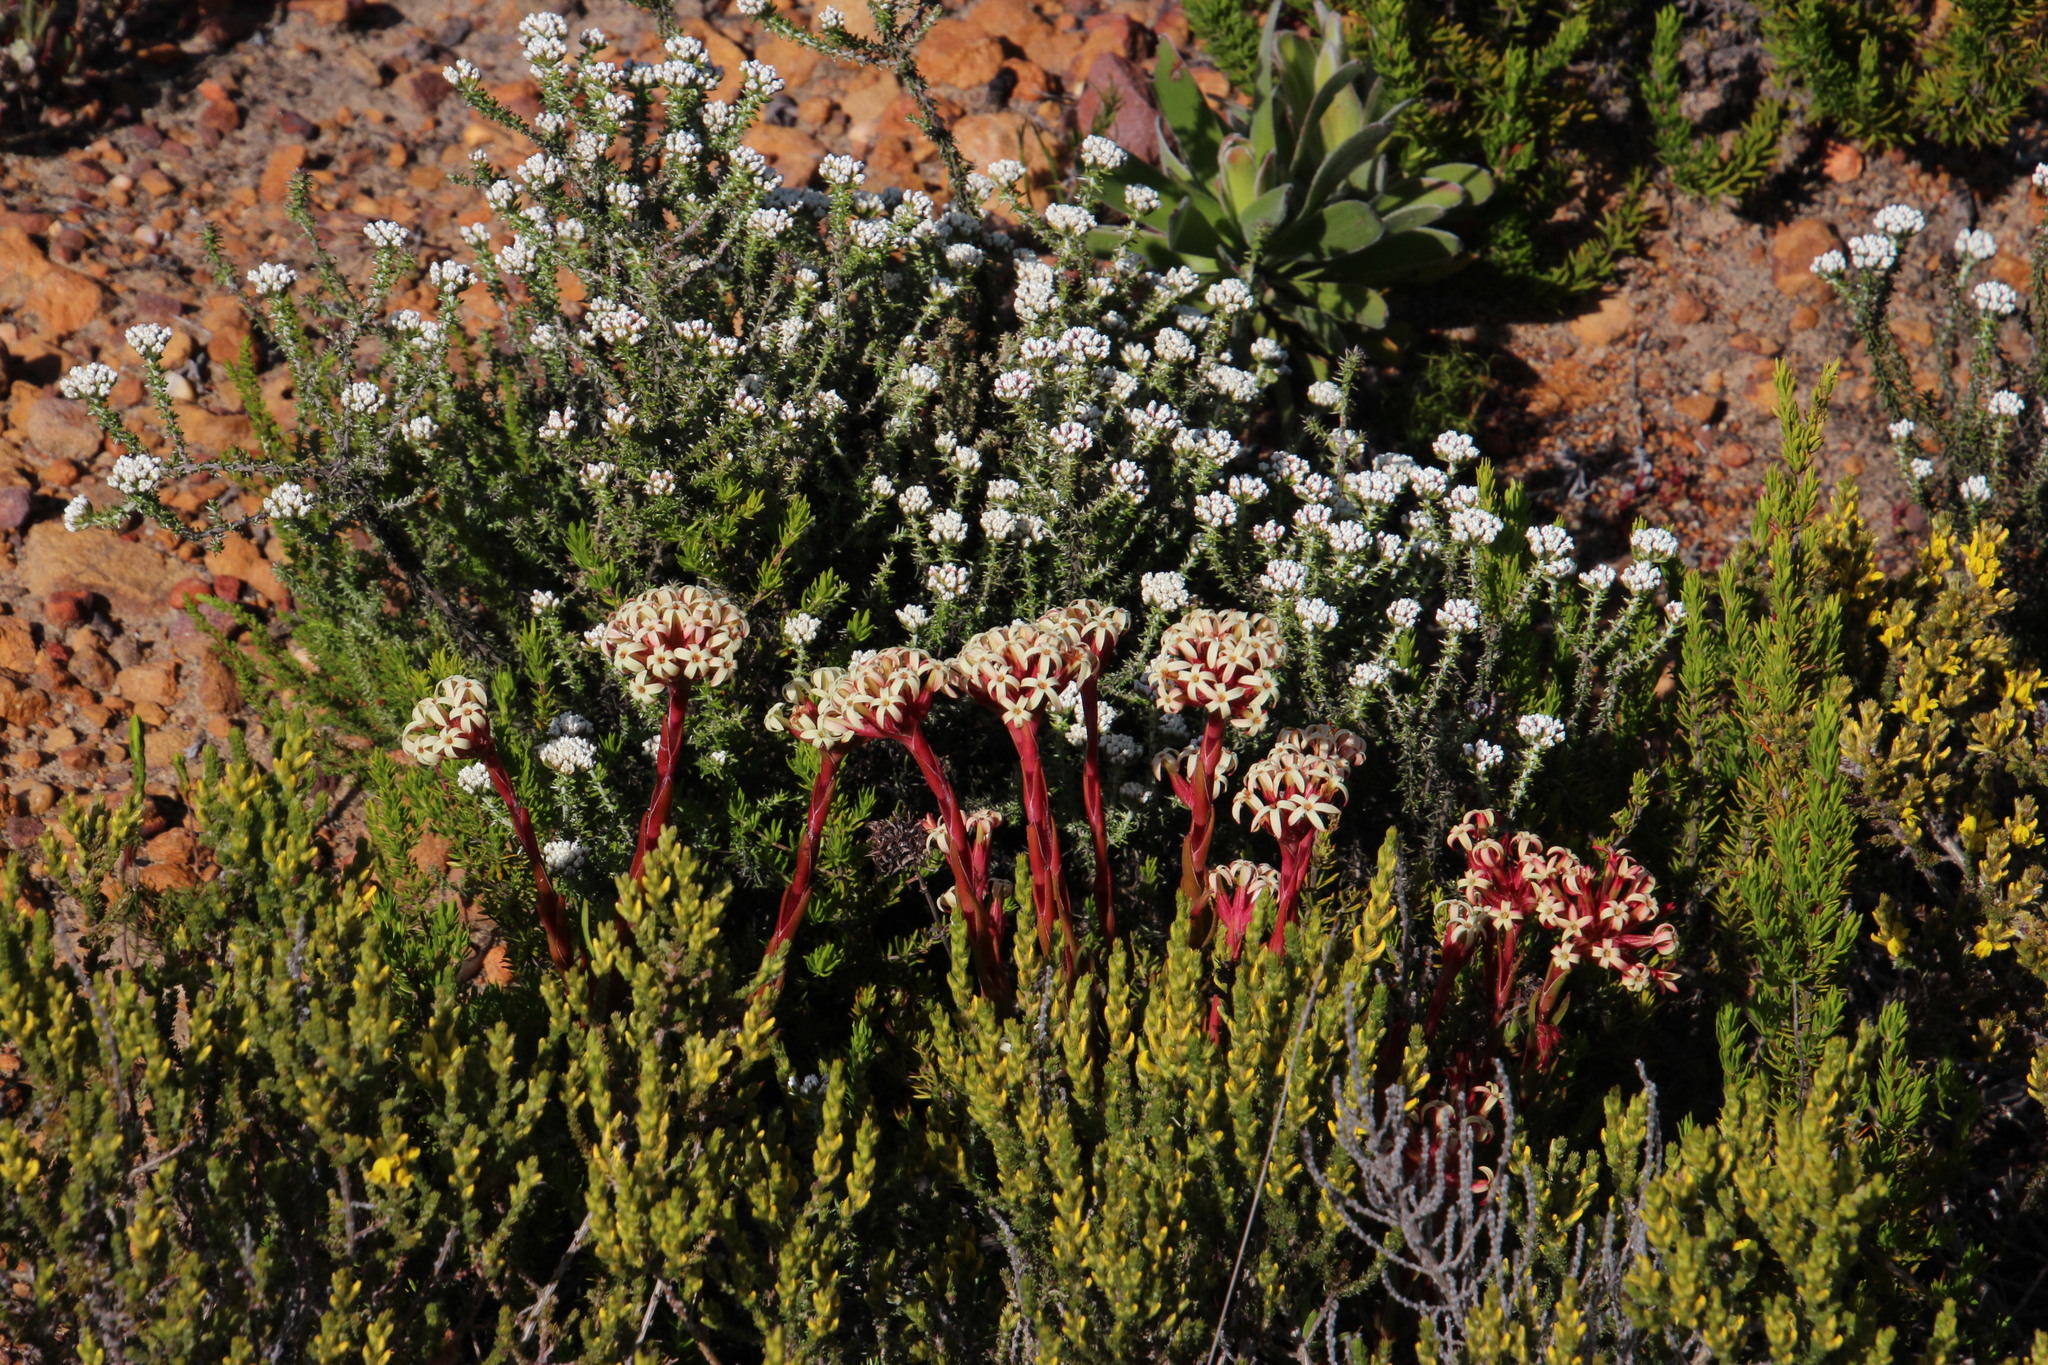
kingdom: Plantae
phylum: Tracheophyta
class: Magnoliopsida
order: Saxifragales
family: Crassulaceae
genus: Crassula
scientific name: Crassula fascicularis
